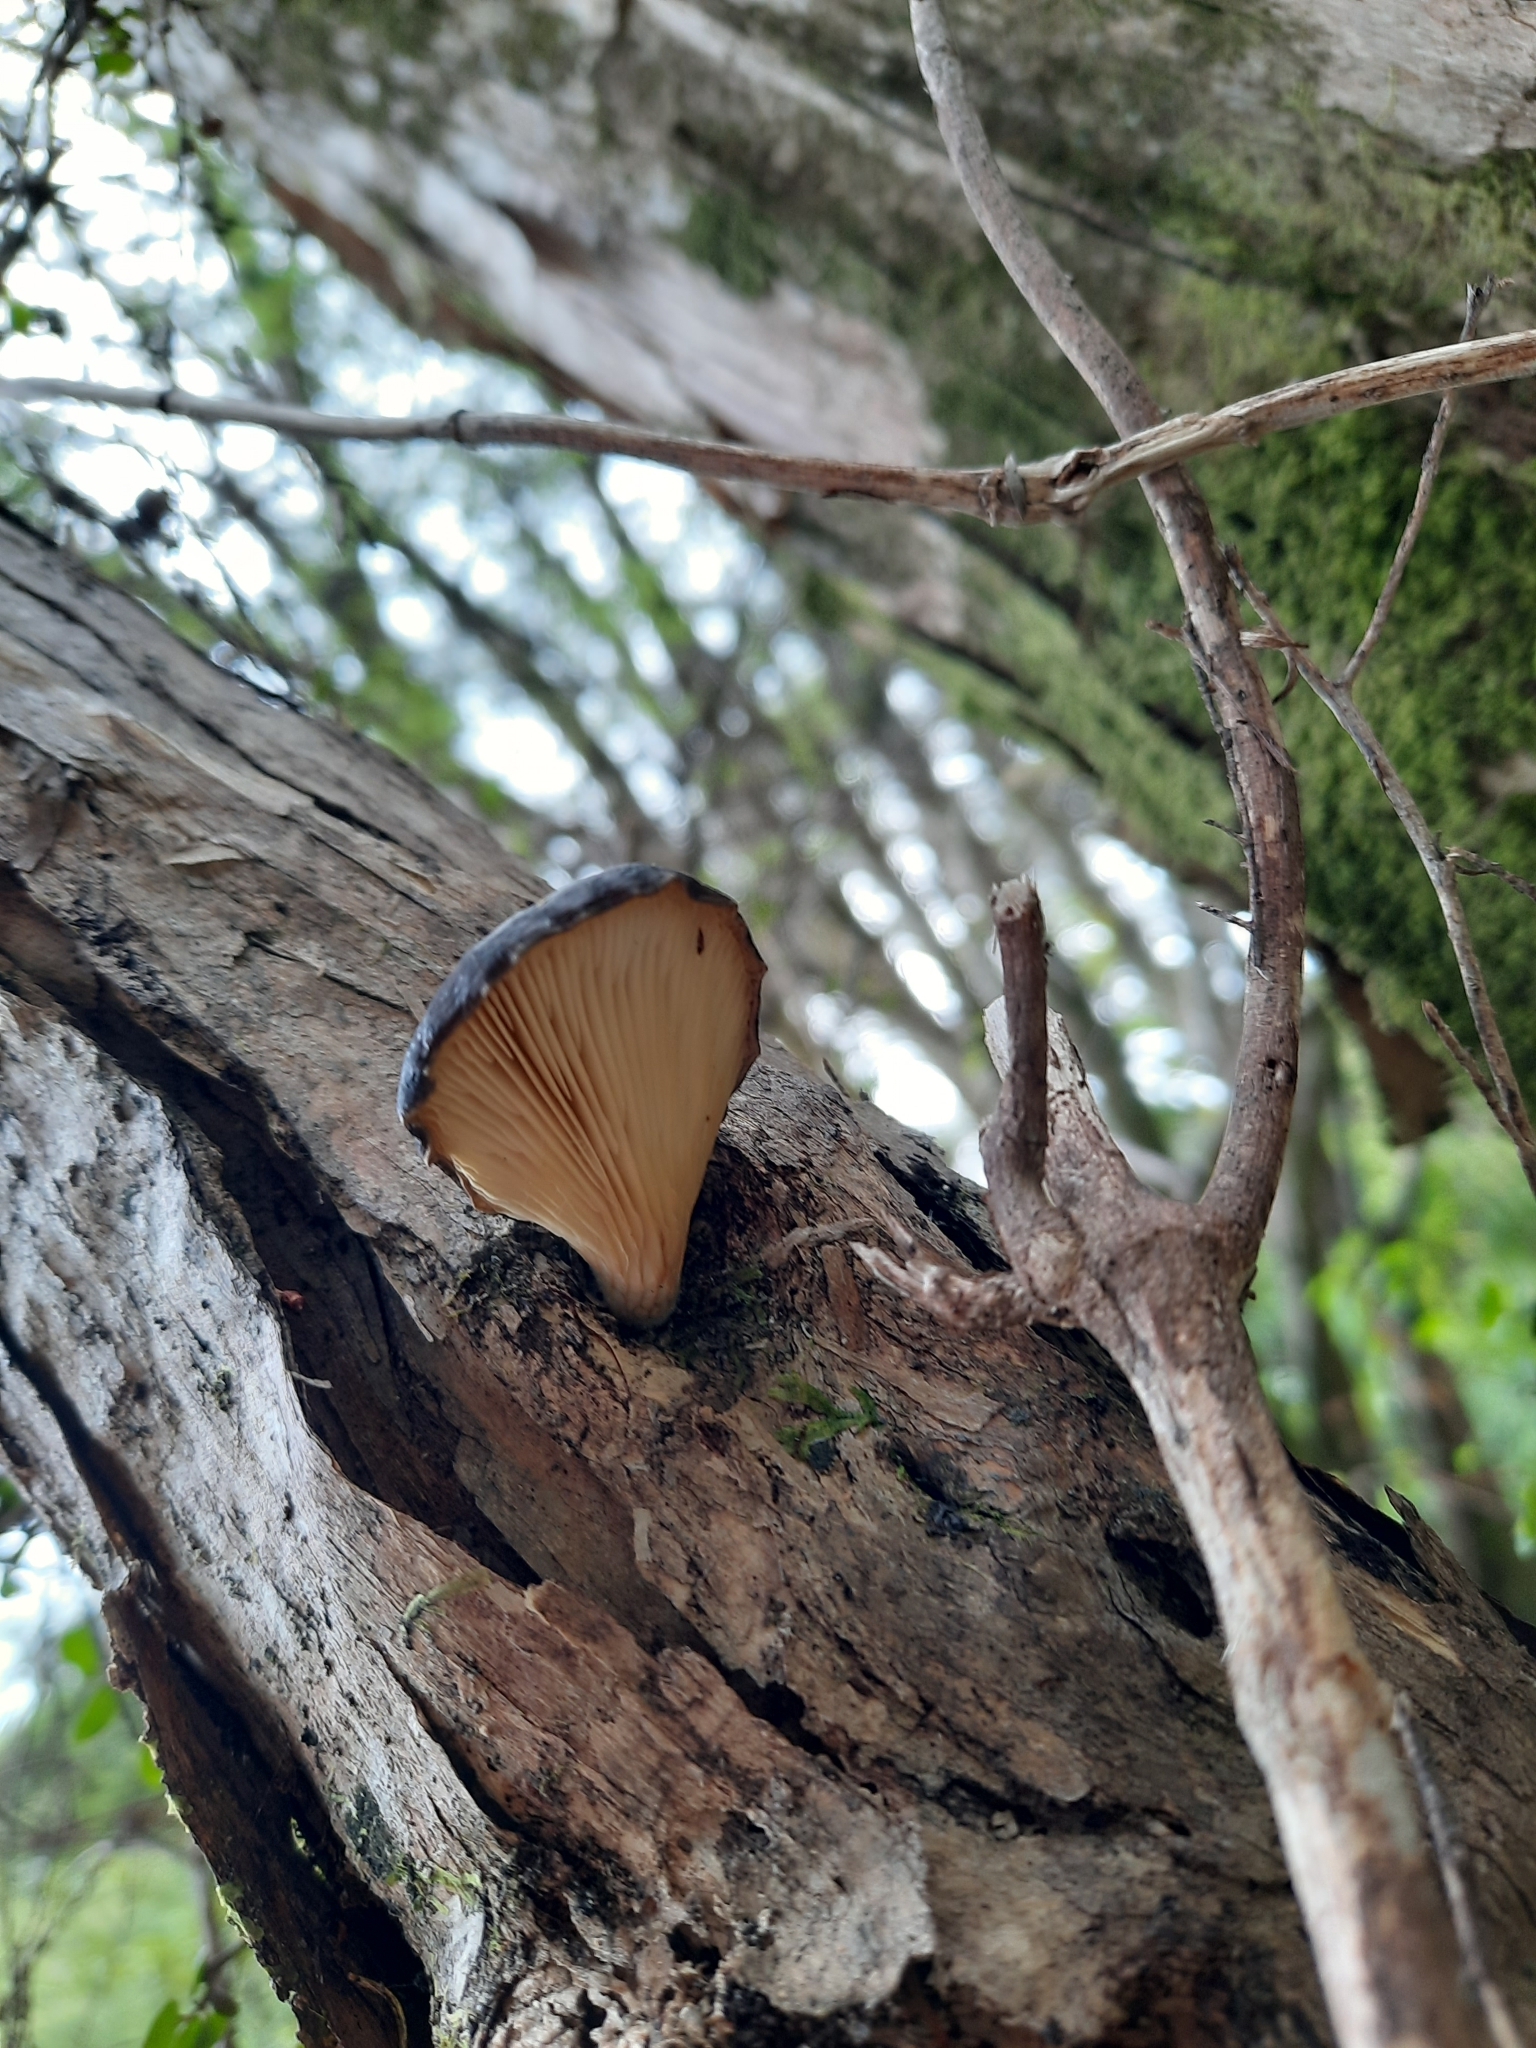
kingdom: Fungi
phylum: Basidiomycota
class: Agaricomycetes
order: Agaricales
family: Pleurotaceae
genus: Pleurotus
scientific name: Pleurotus australis
